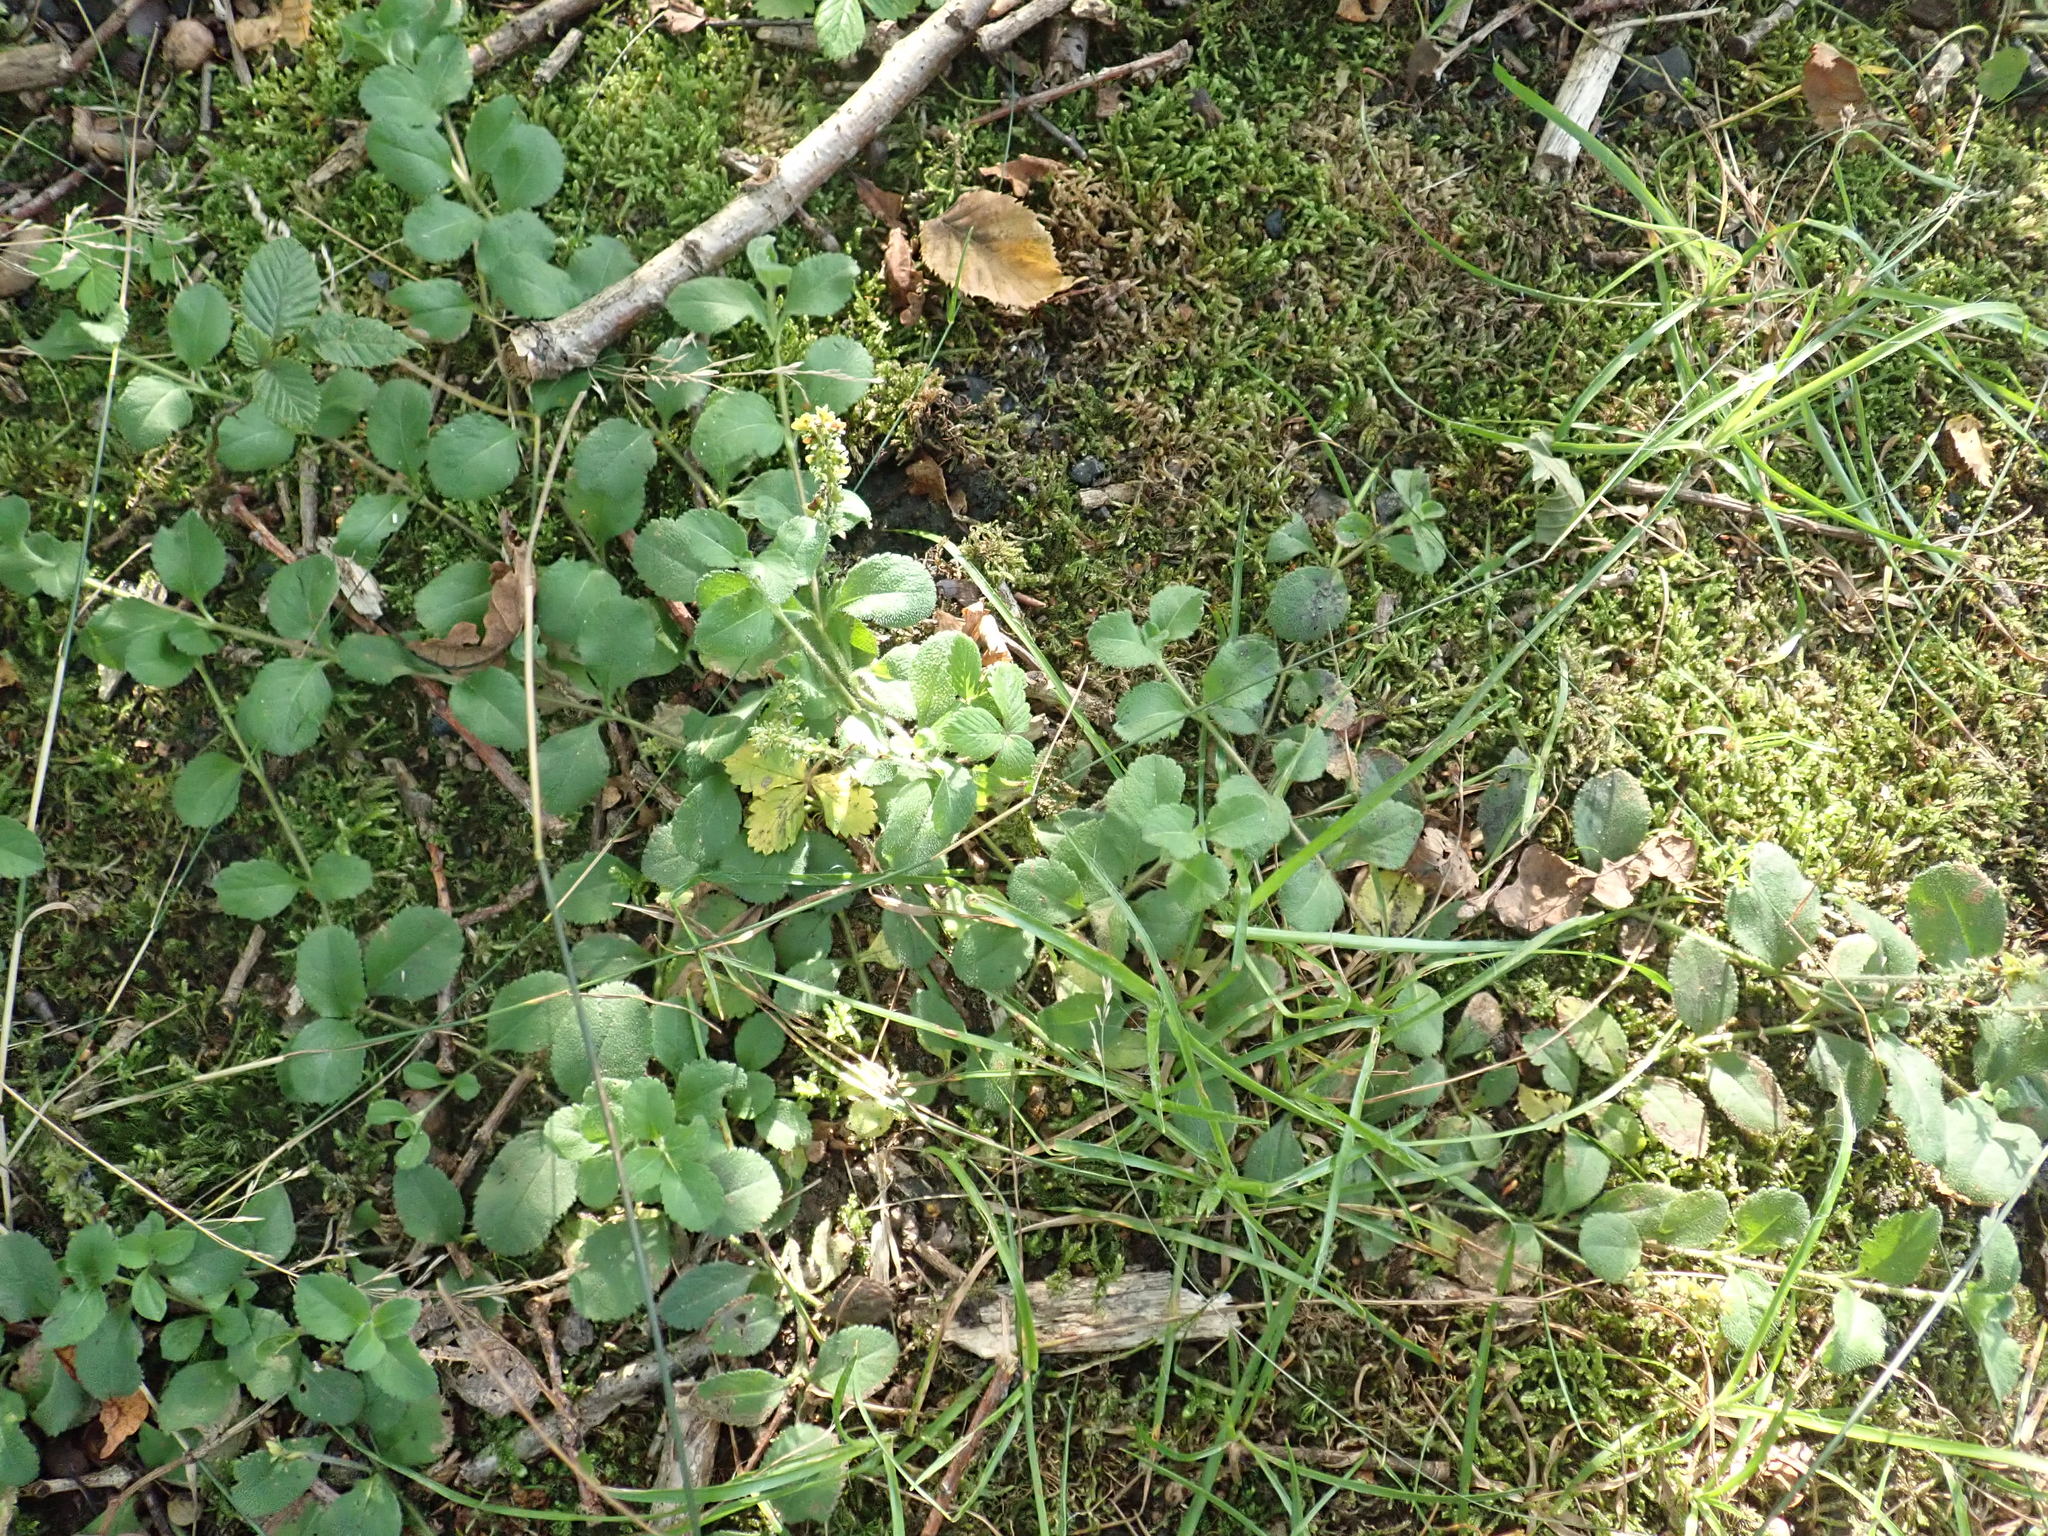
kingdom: Plantae
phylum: Tracheophyta
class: Magnoliopsida
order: Lamiales
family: Plantaginaceae
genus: Veronica
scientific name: Veronica officinalis
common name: Common speedwell
